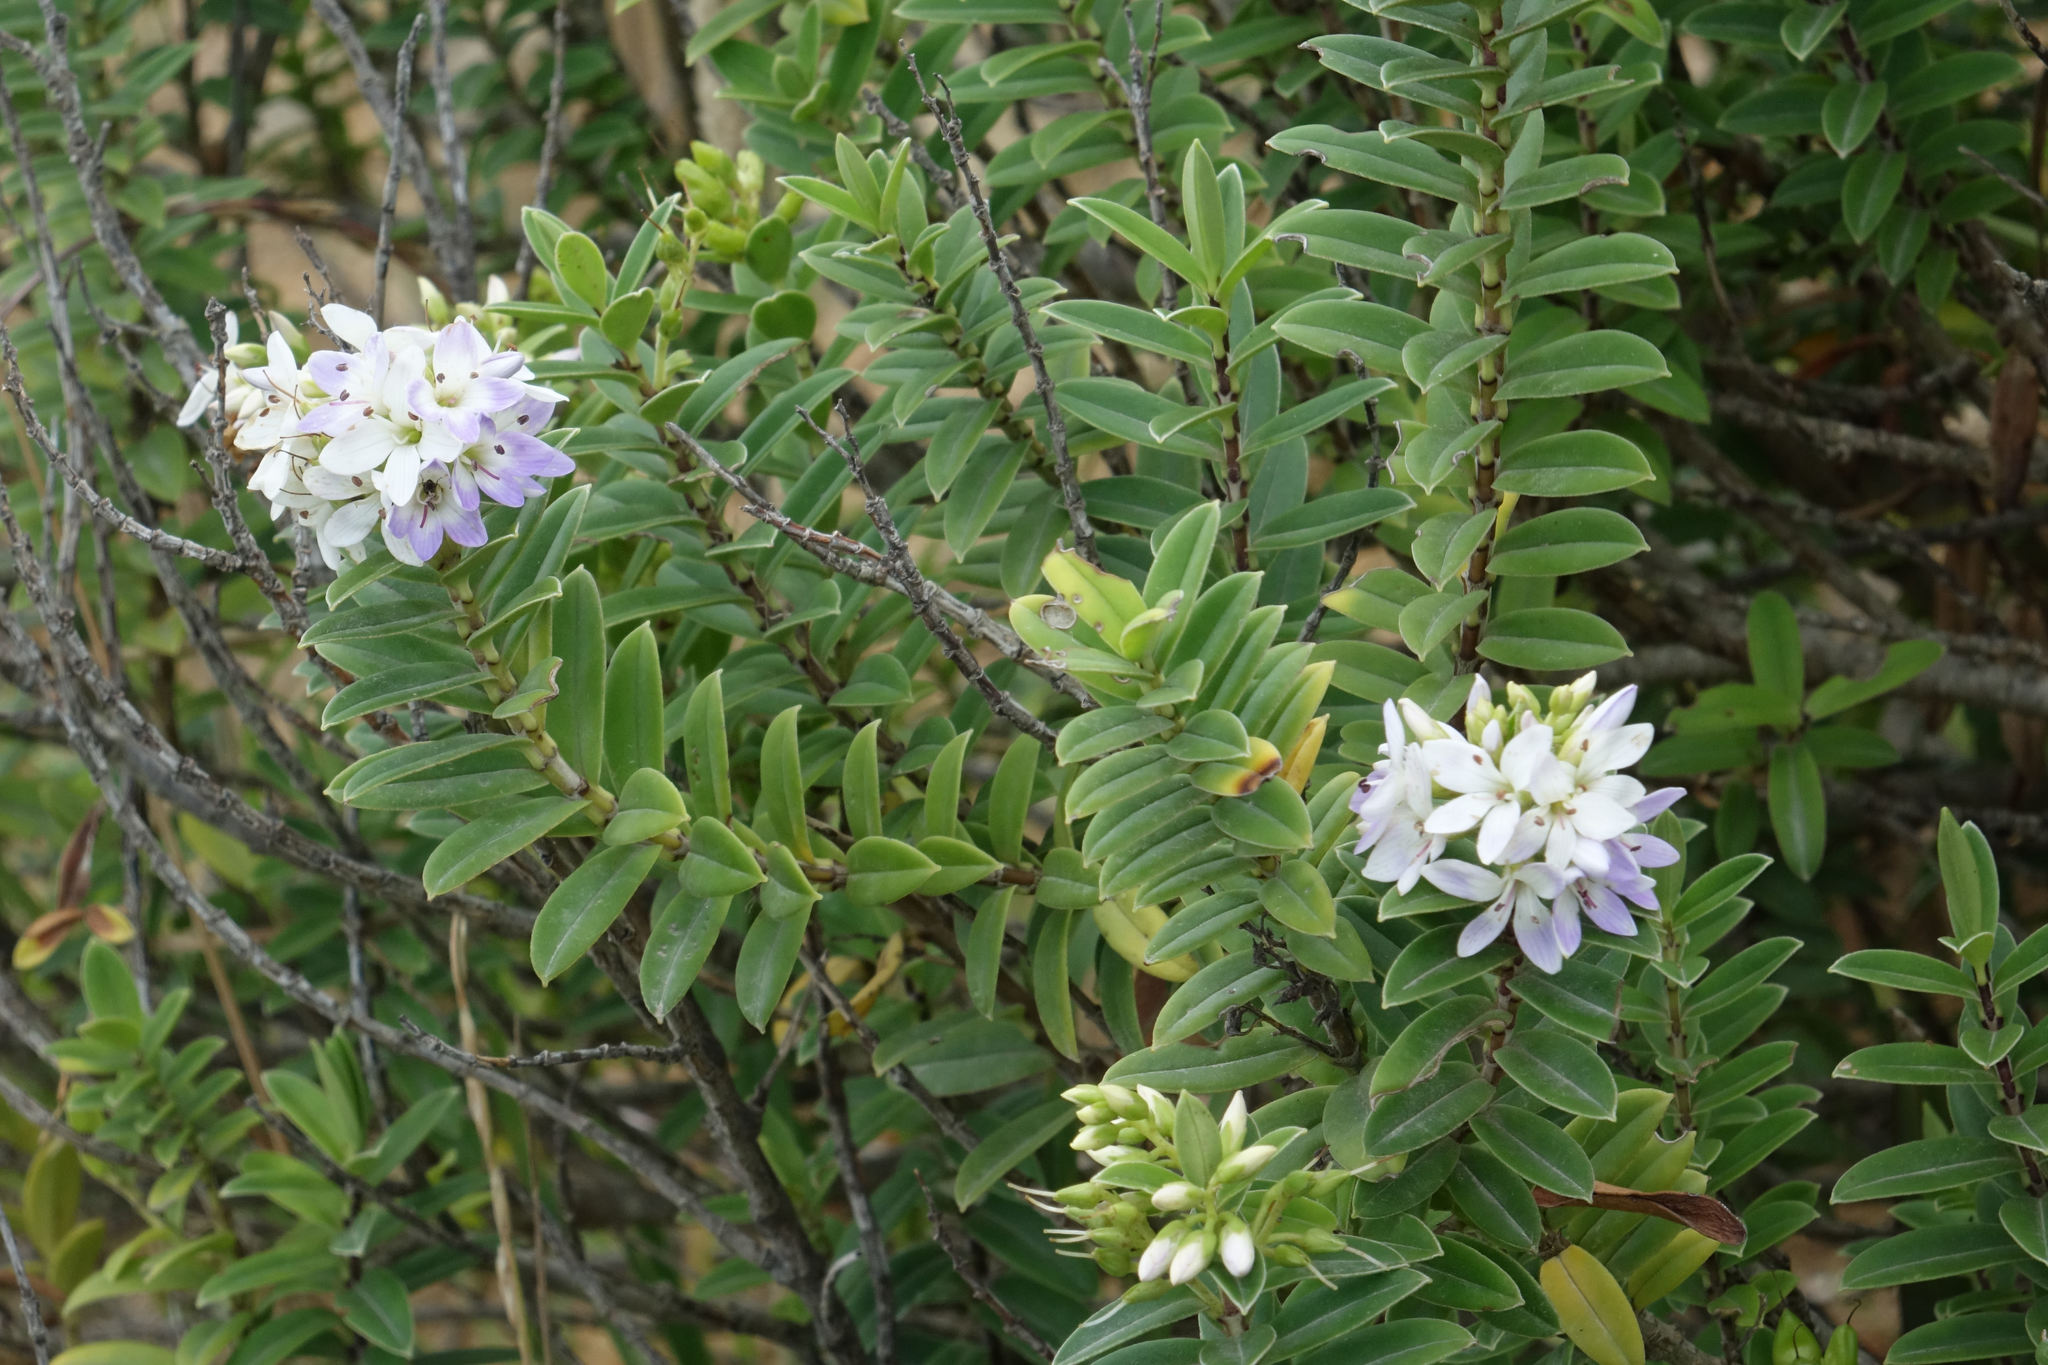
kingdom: Plantae
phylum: Tracheophyta
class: Magnoliopsida
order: Lamiales
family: Plantaginaceae
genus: Veronica
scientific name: Veronica elliptica
